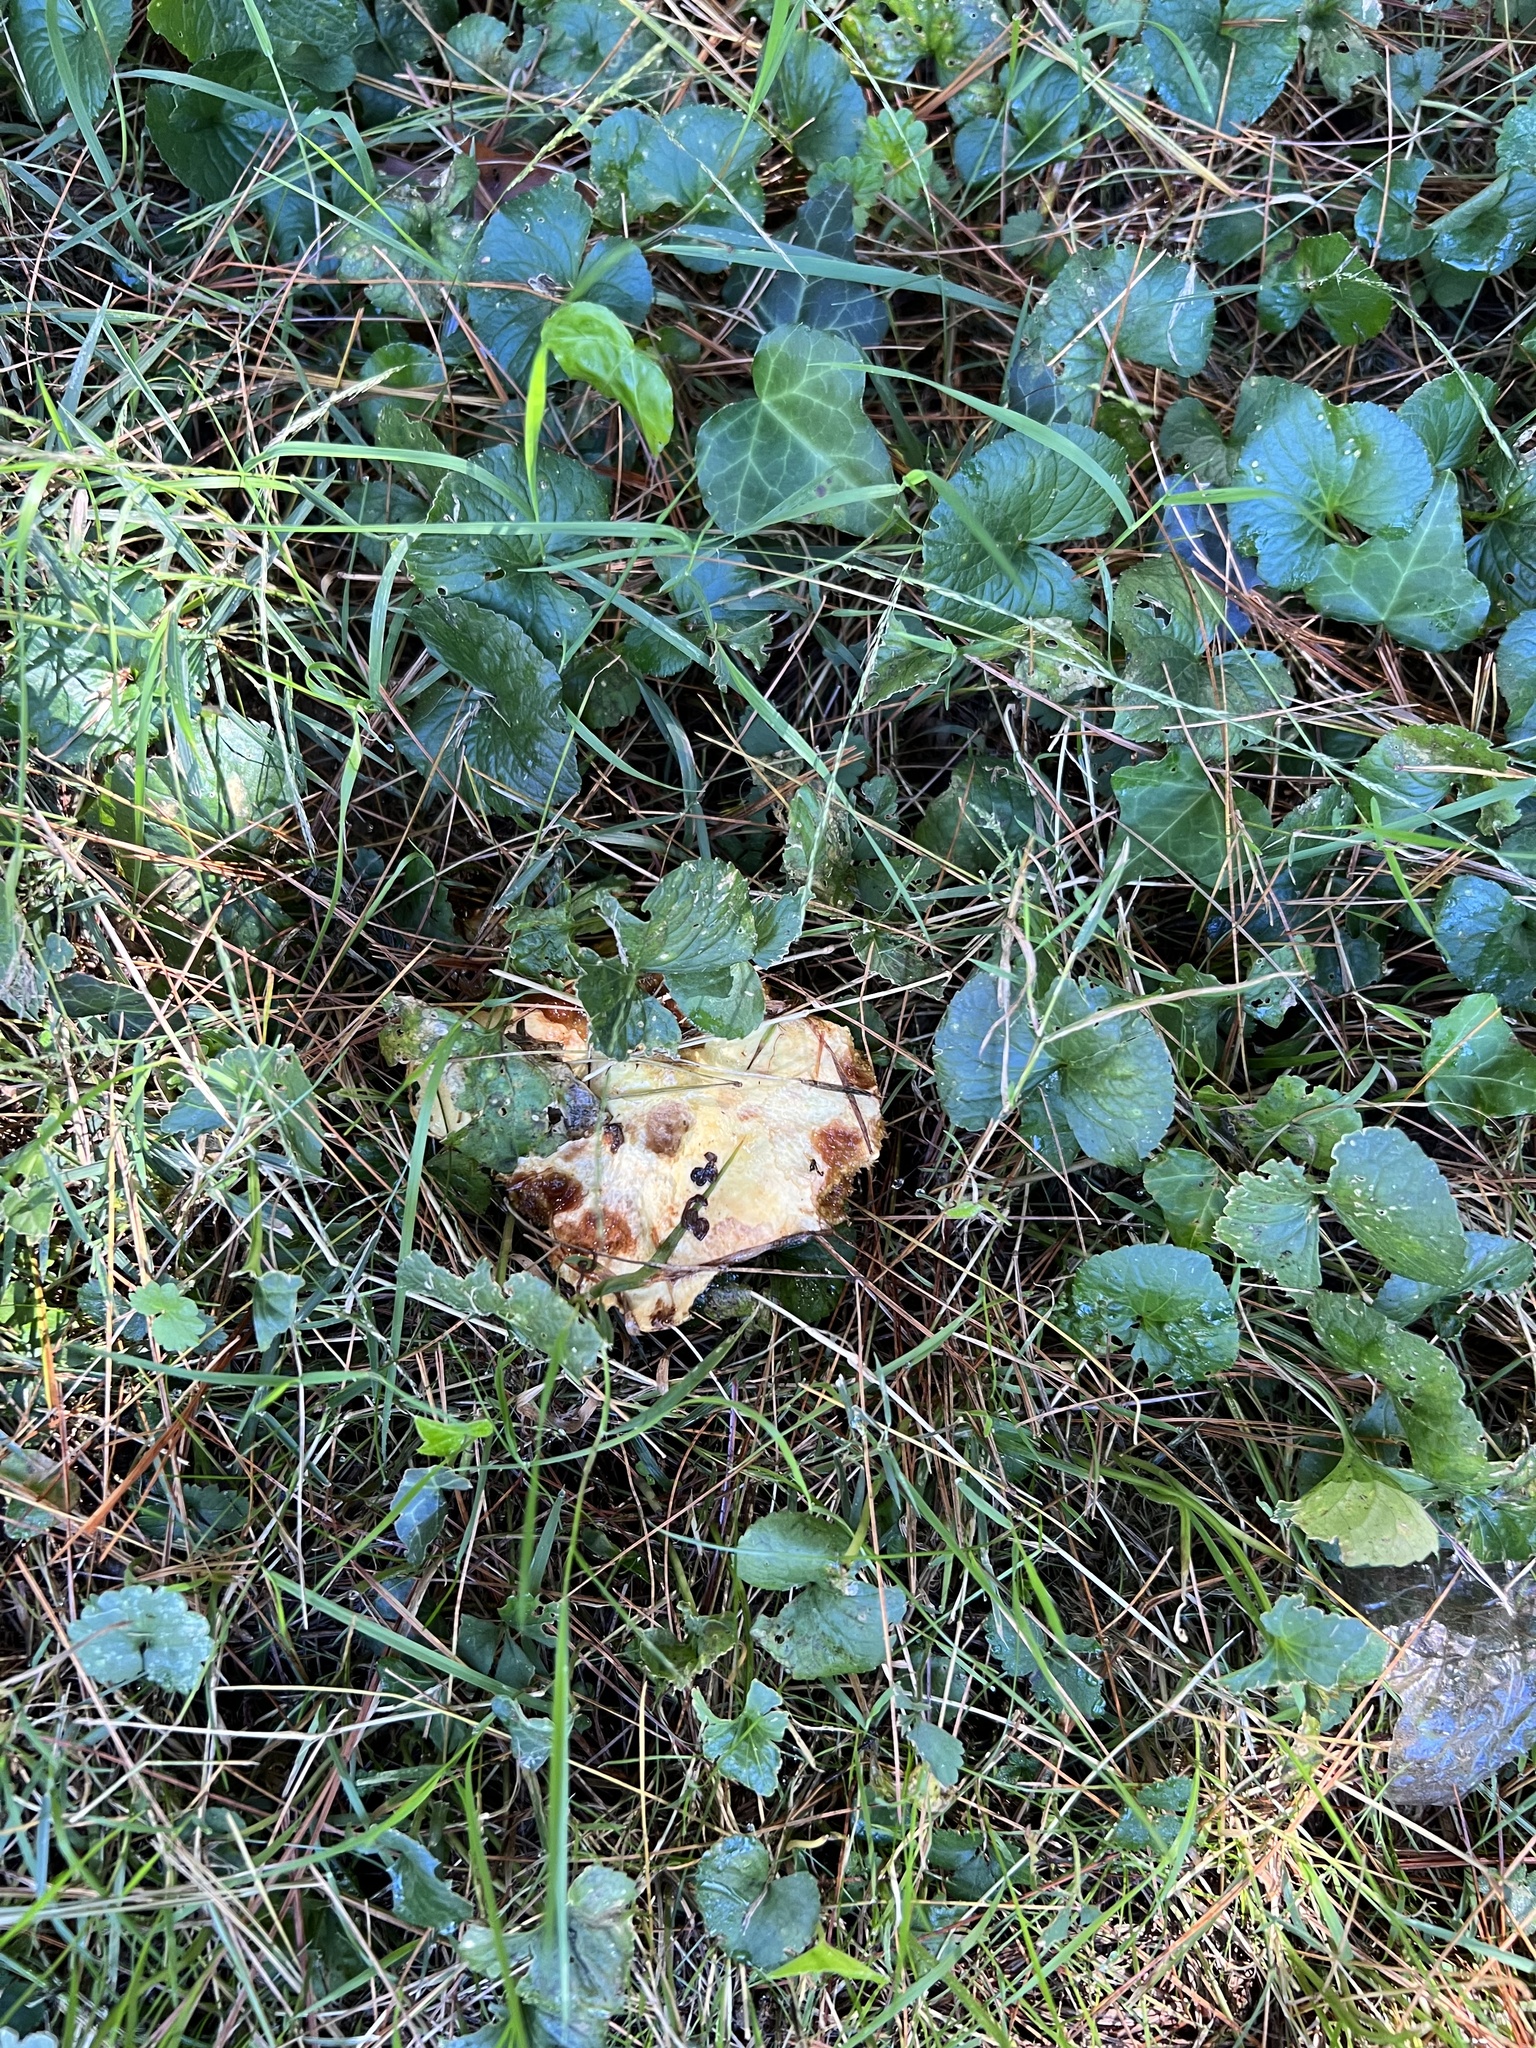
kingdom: Fungi
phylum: Basidiomycota
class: Agaricomycetes
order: Boletales
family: Suillaceae
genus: Suillus
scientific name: Suillus americanus
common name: Chicken fat mushroom
